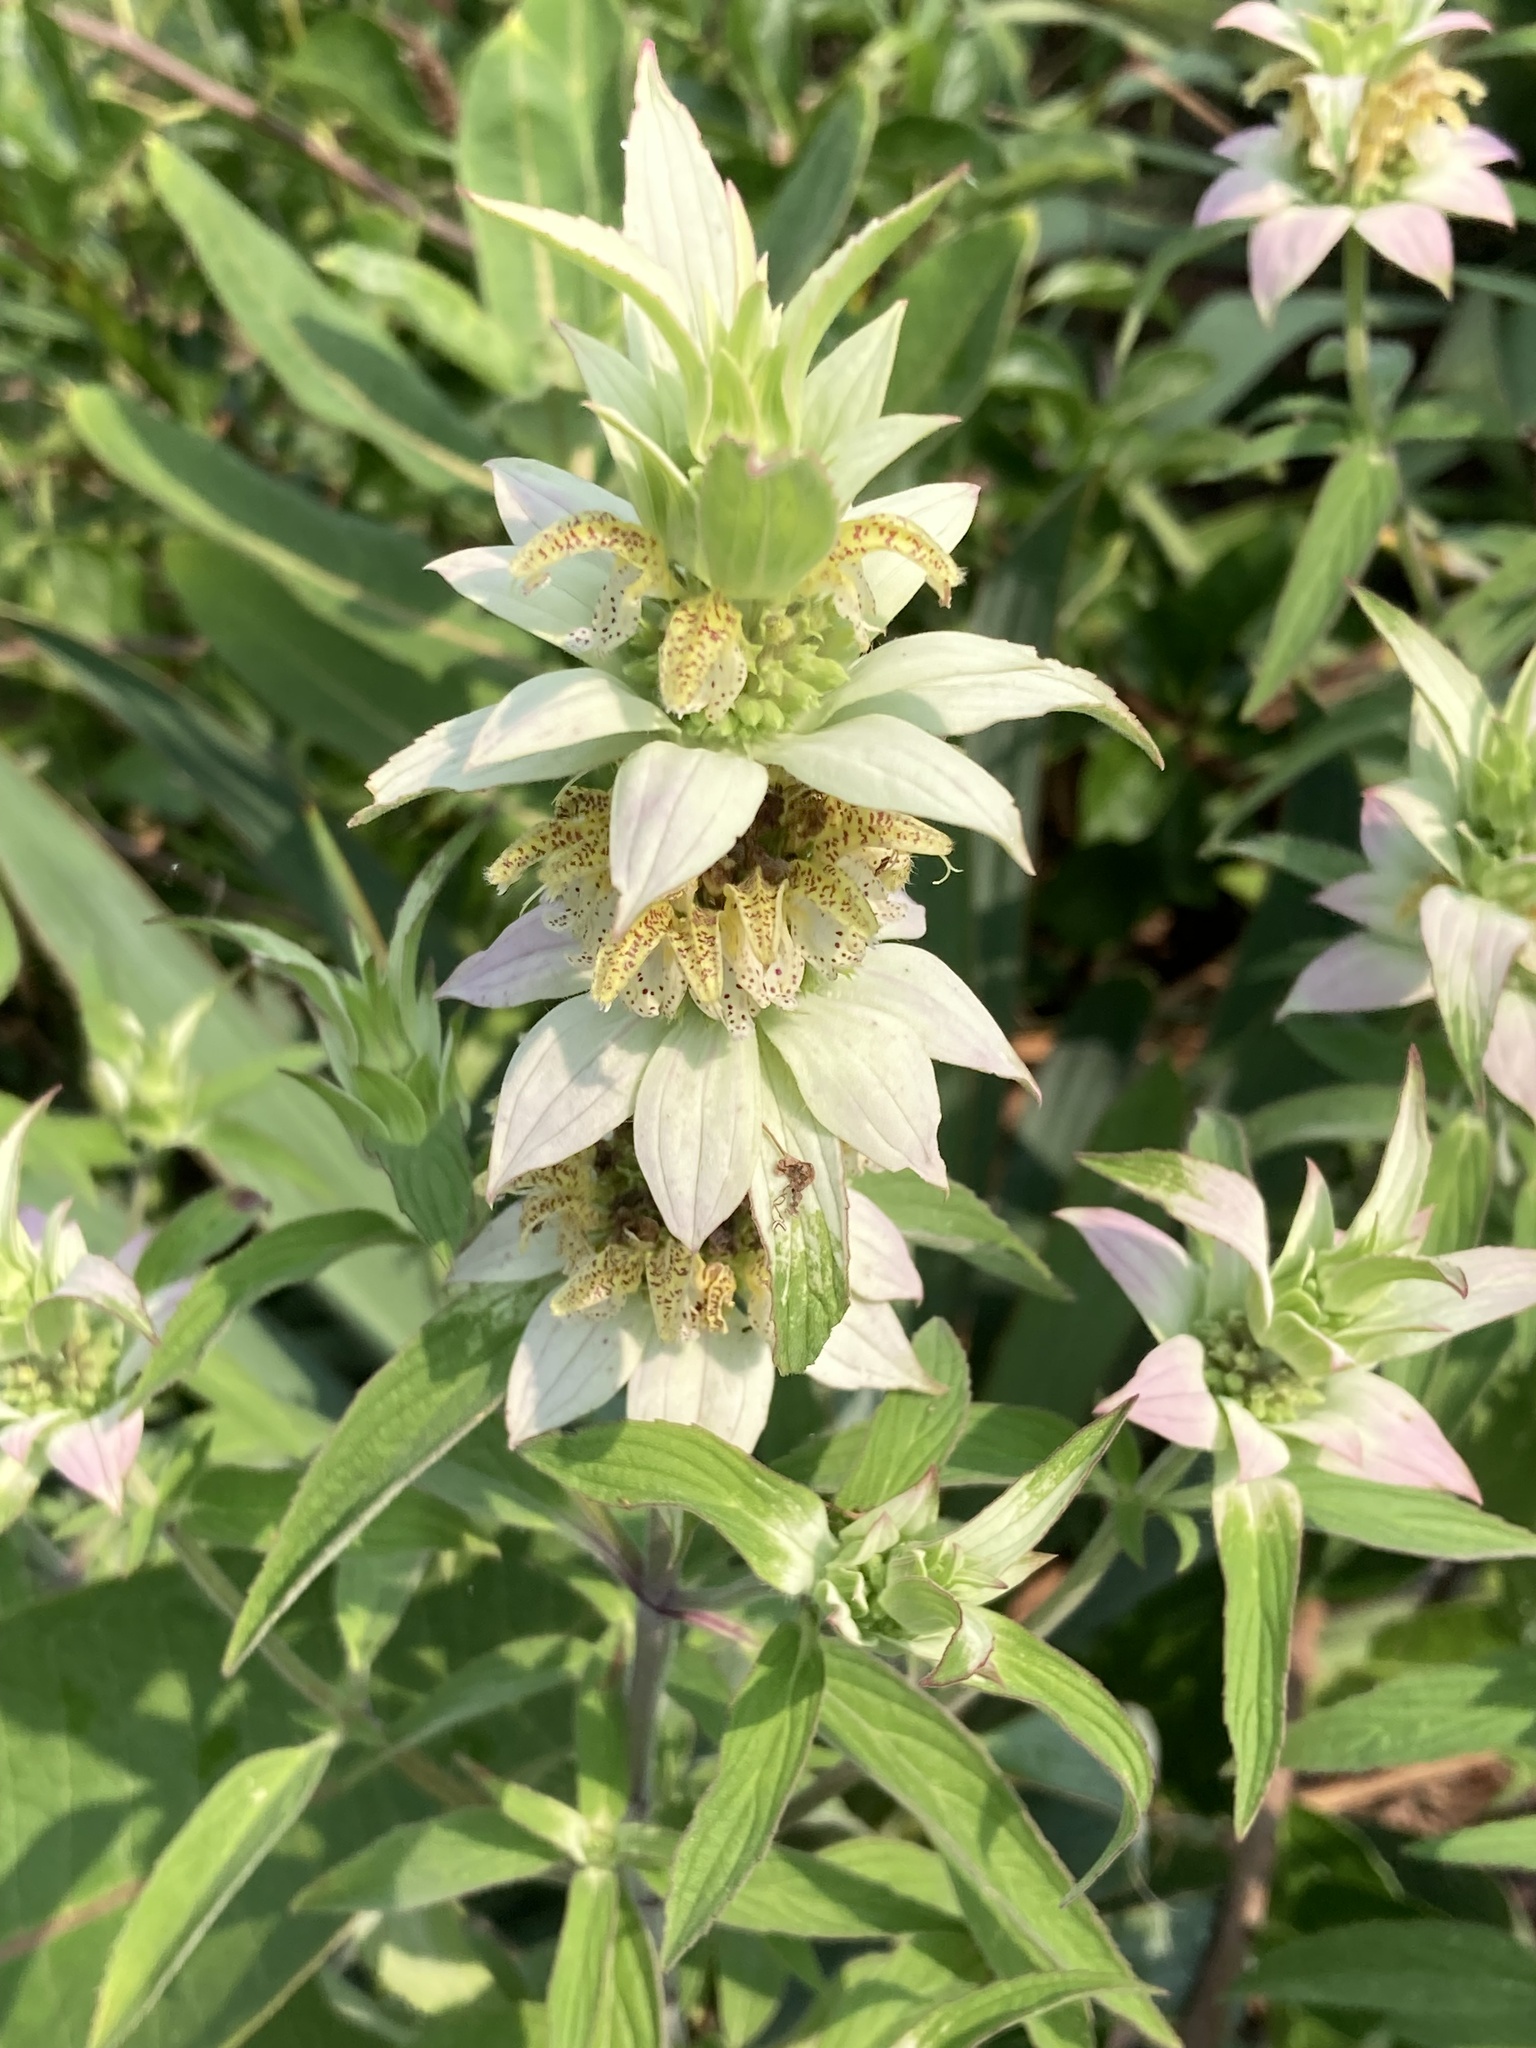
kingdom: Plantae
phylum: Tracheophyta
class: Magnoliopsida
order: Lamiales
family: Lamiaceae
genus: Monarda
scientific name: Monarda punctata
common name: Dotted monarda
